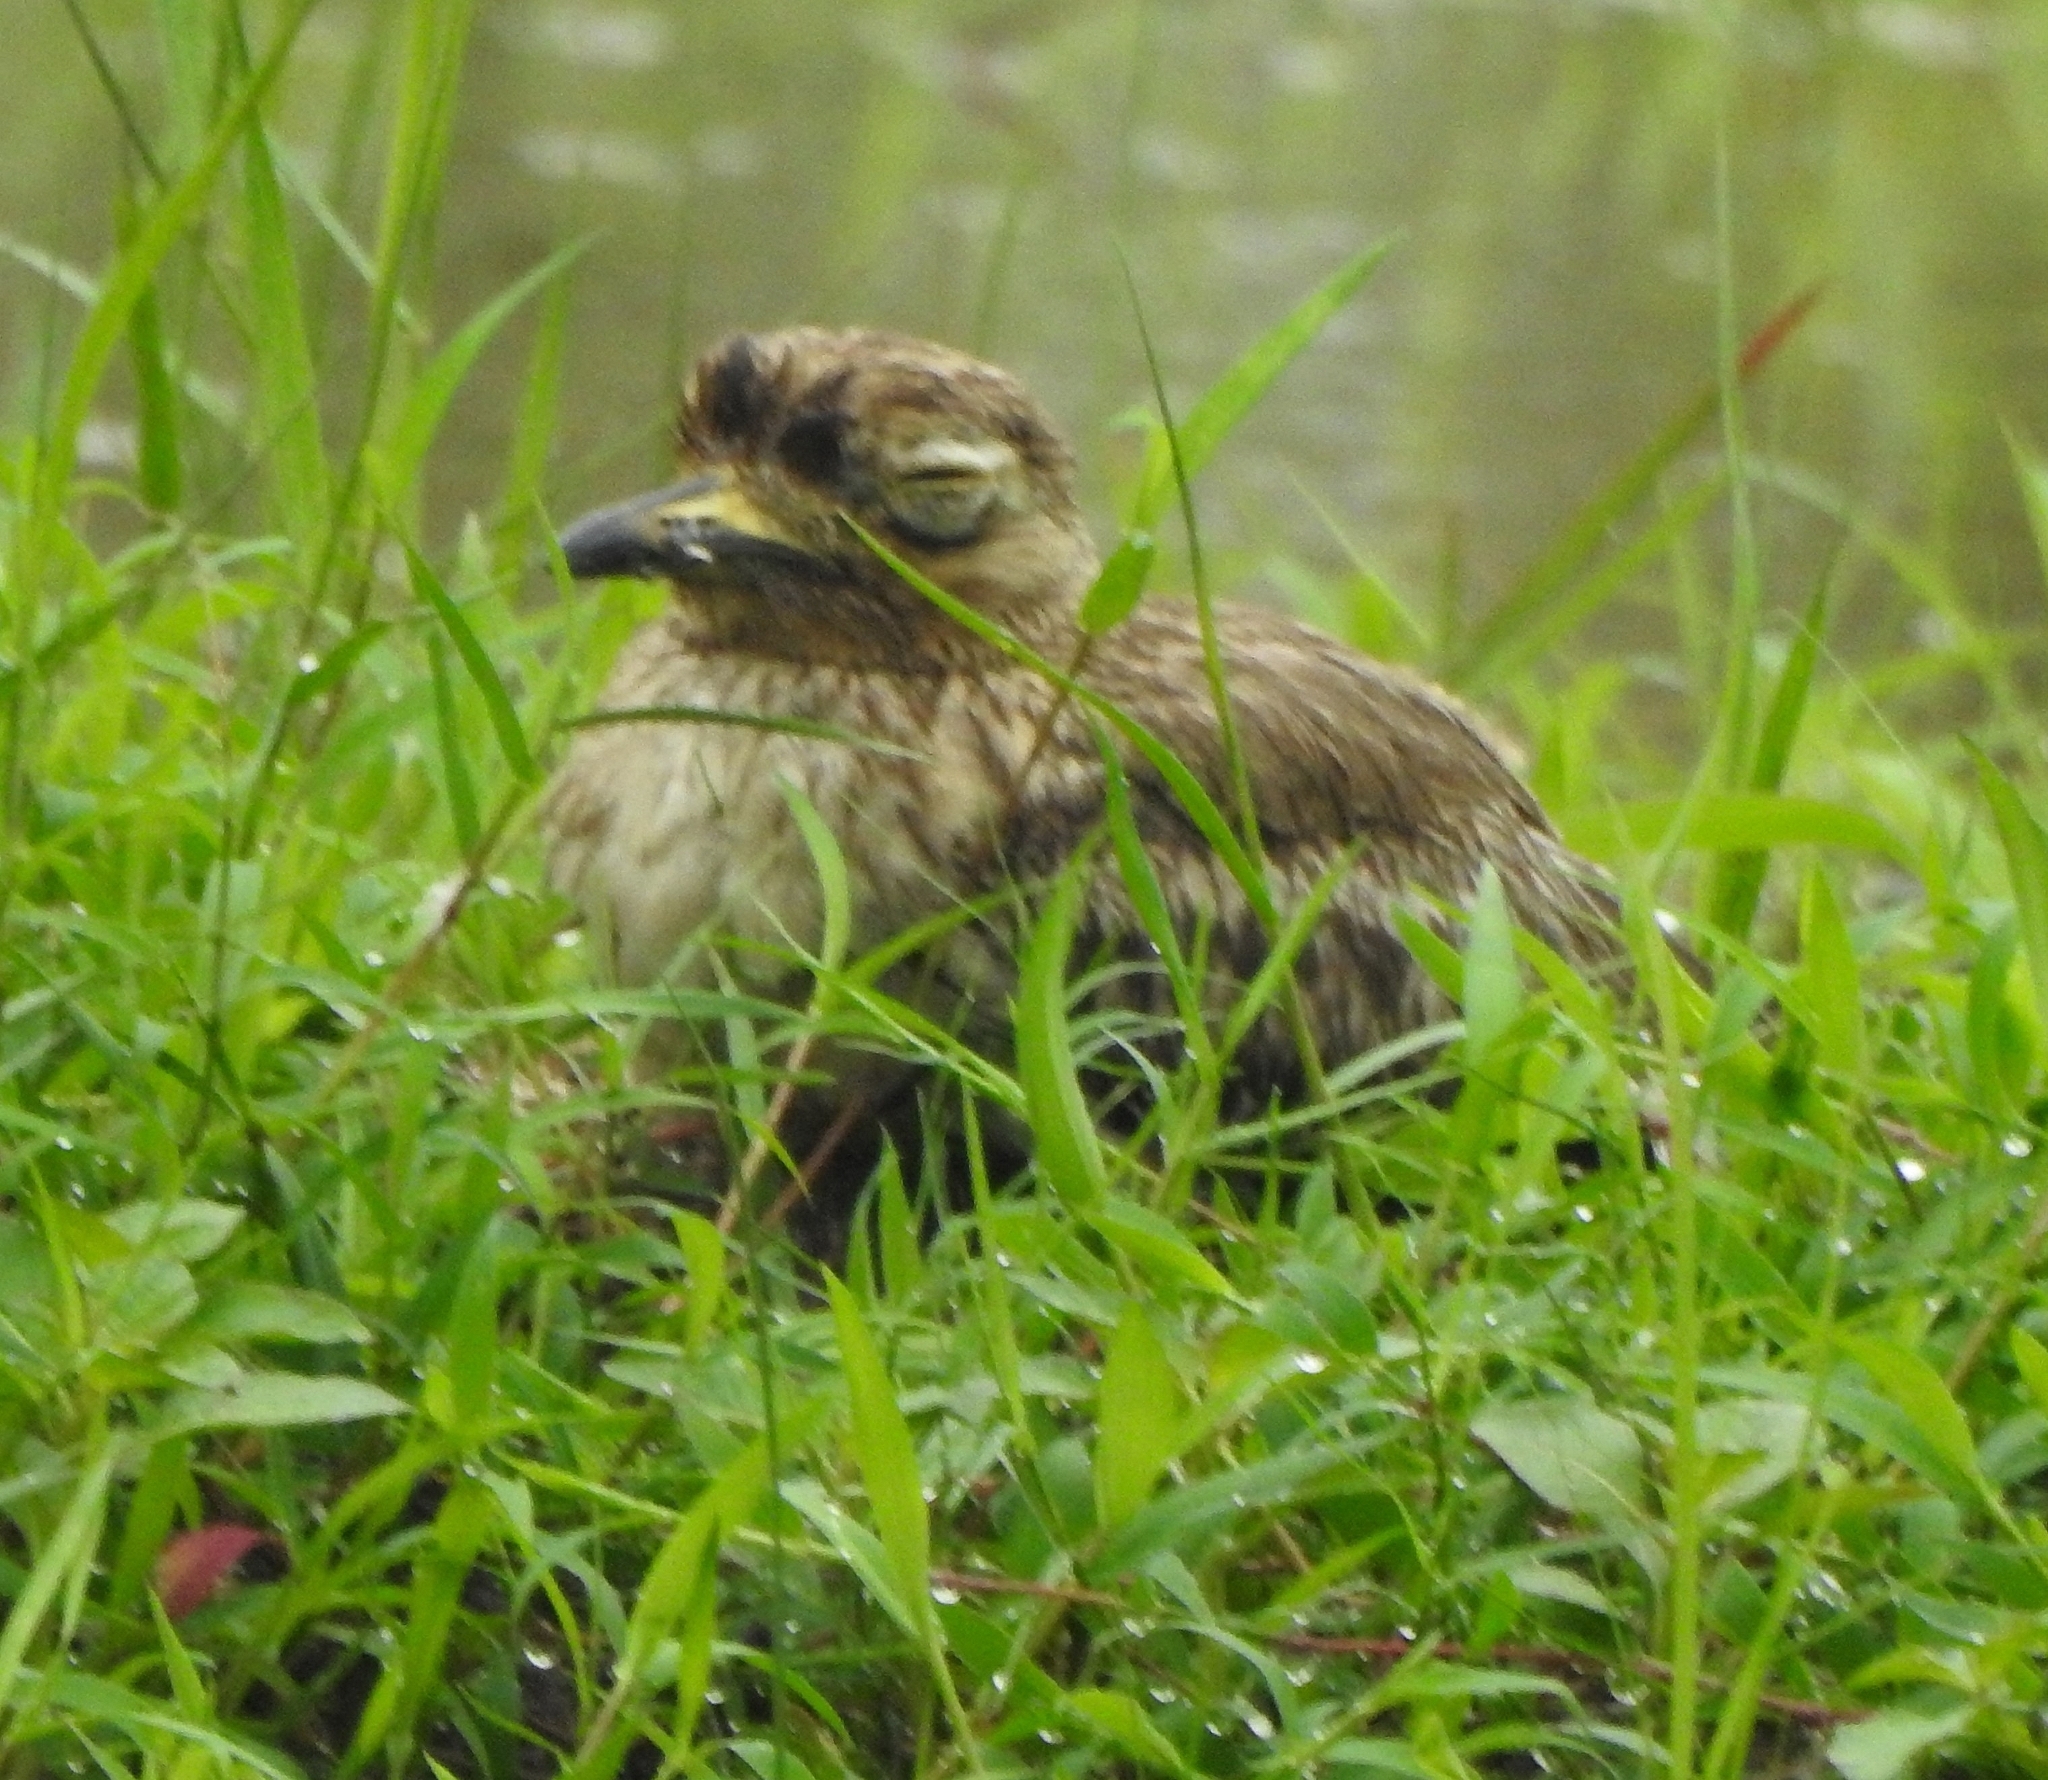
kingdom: Animalia
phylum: Chordata
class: Aves
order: Charadriiformes
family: Burhinidae
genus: Burhinus
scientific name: Burhinus indicus
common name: Indian thick-knee
